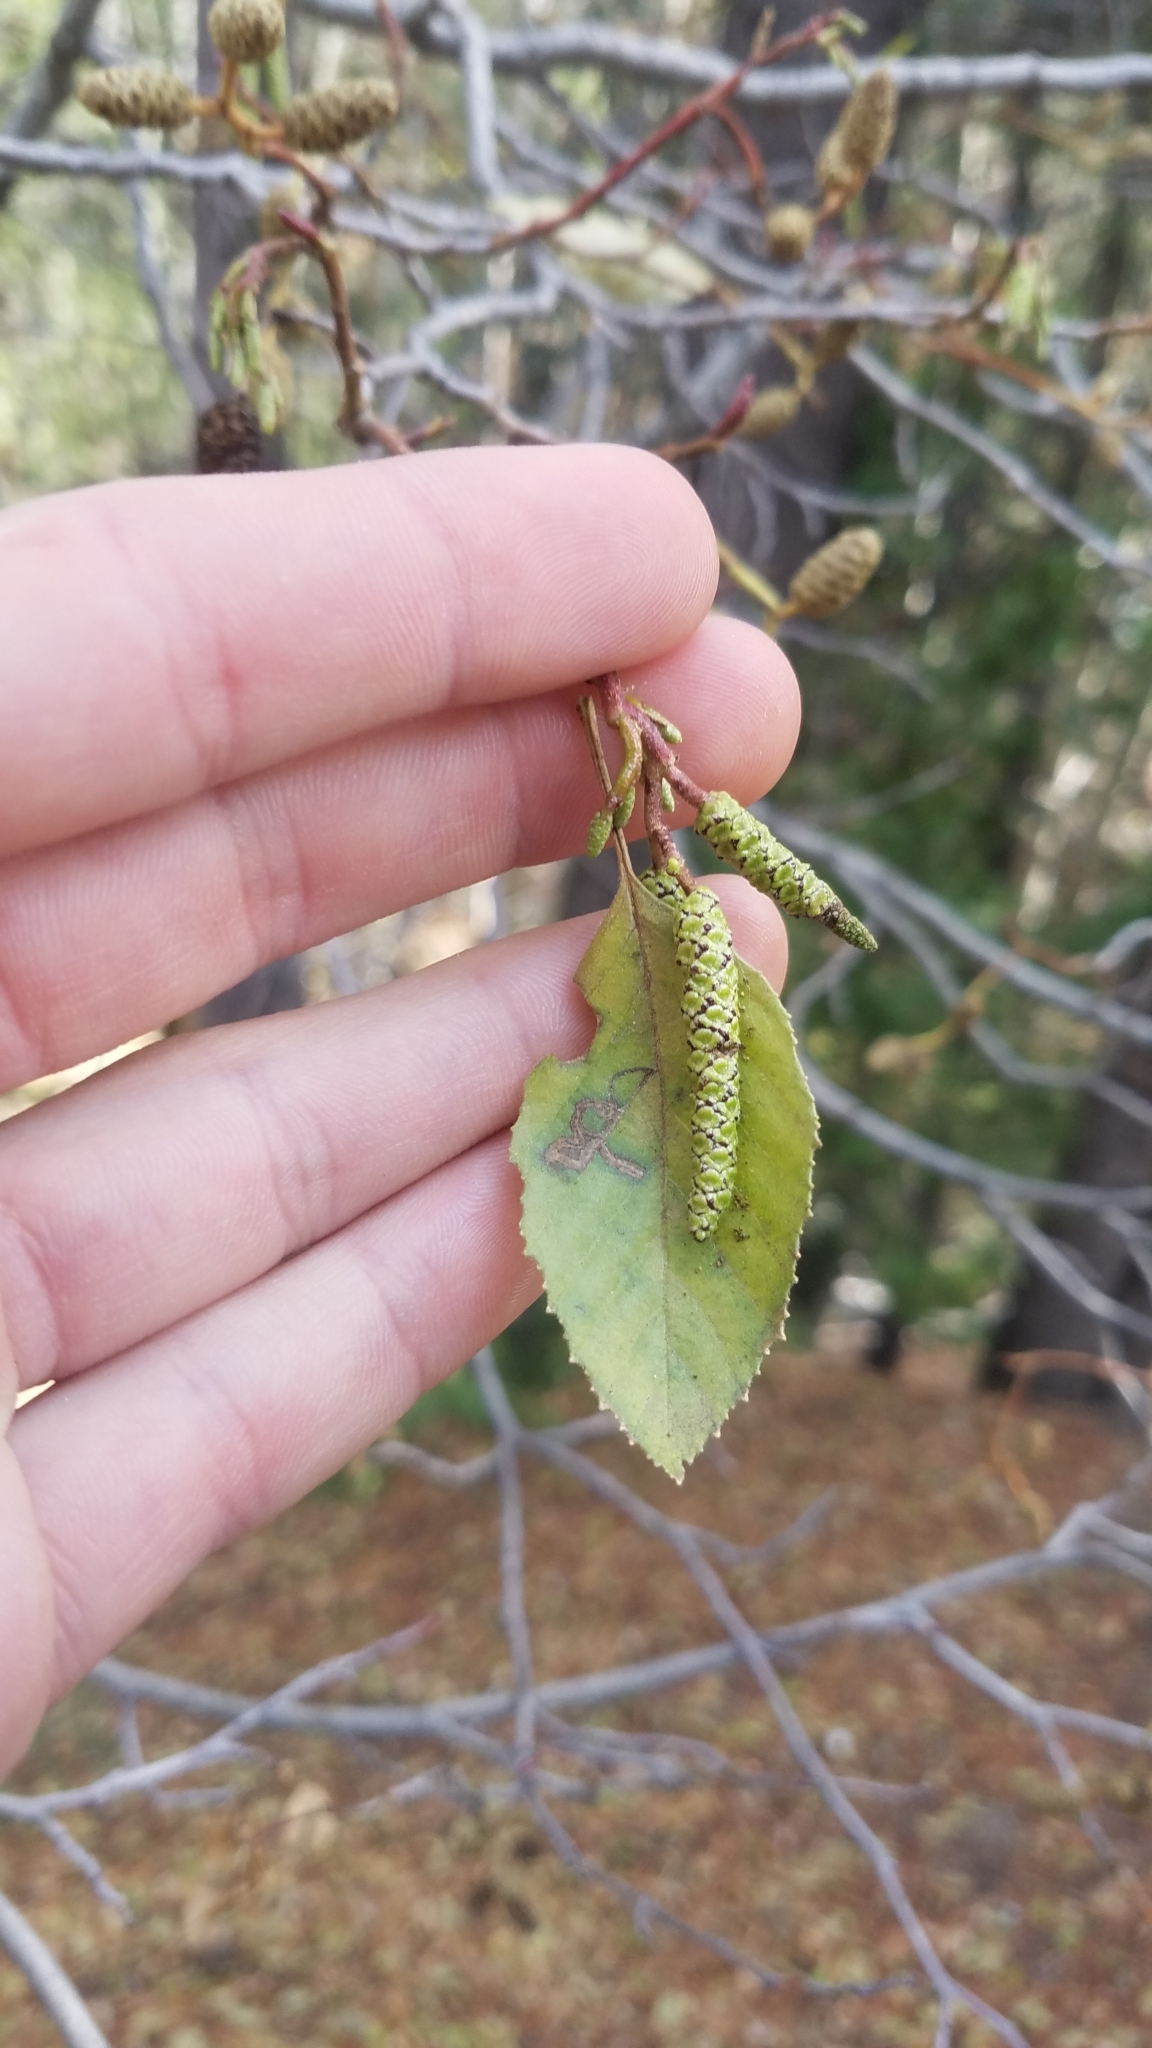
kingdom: Plantae
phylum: Tracheophyta
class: Magnoliopsida
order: Fagales
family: Betulaceae
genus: Alnus
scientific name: Alnus rhombifolia
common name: California alder
